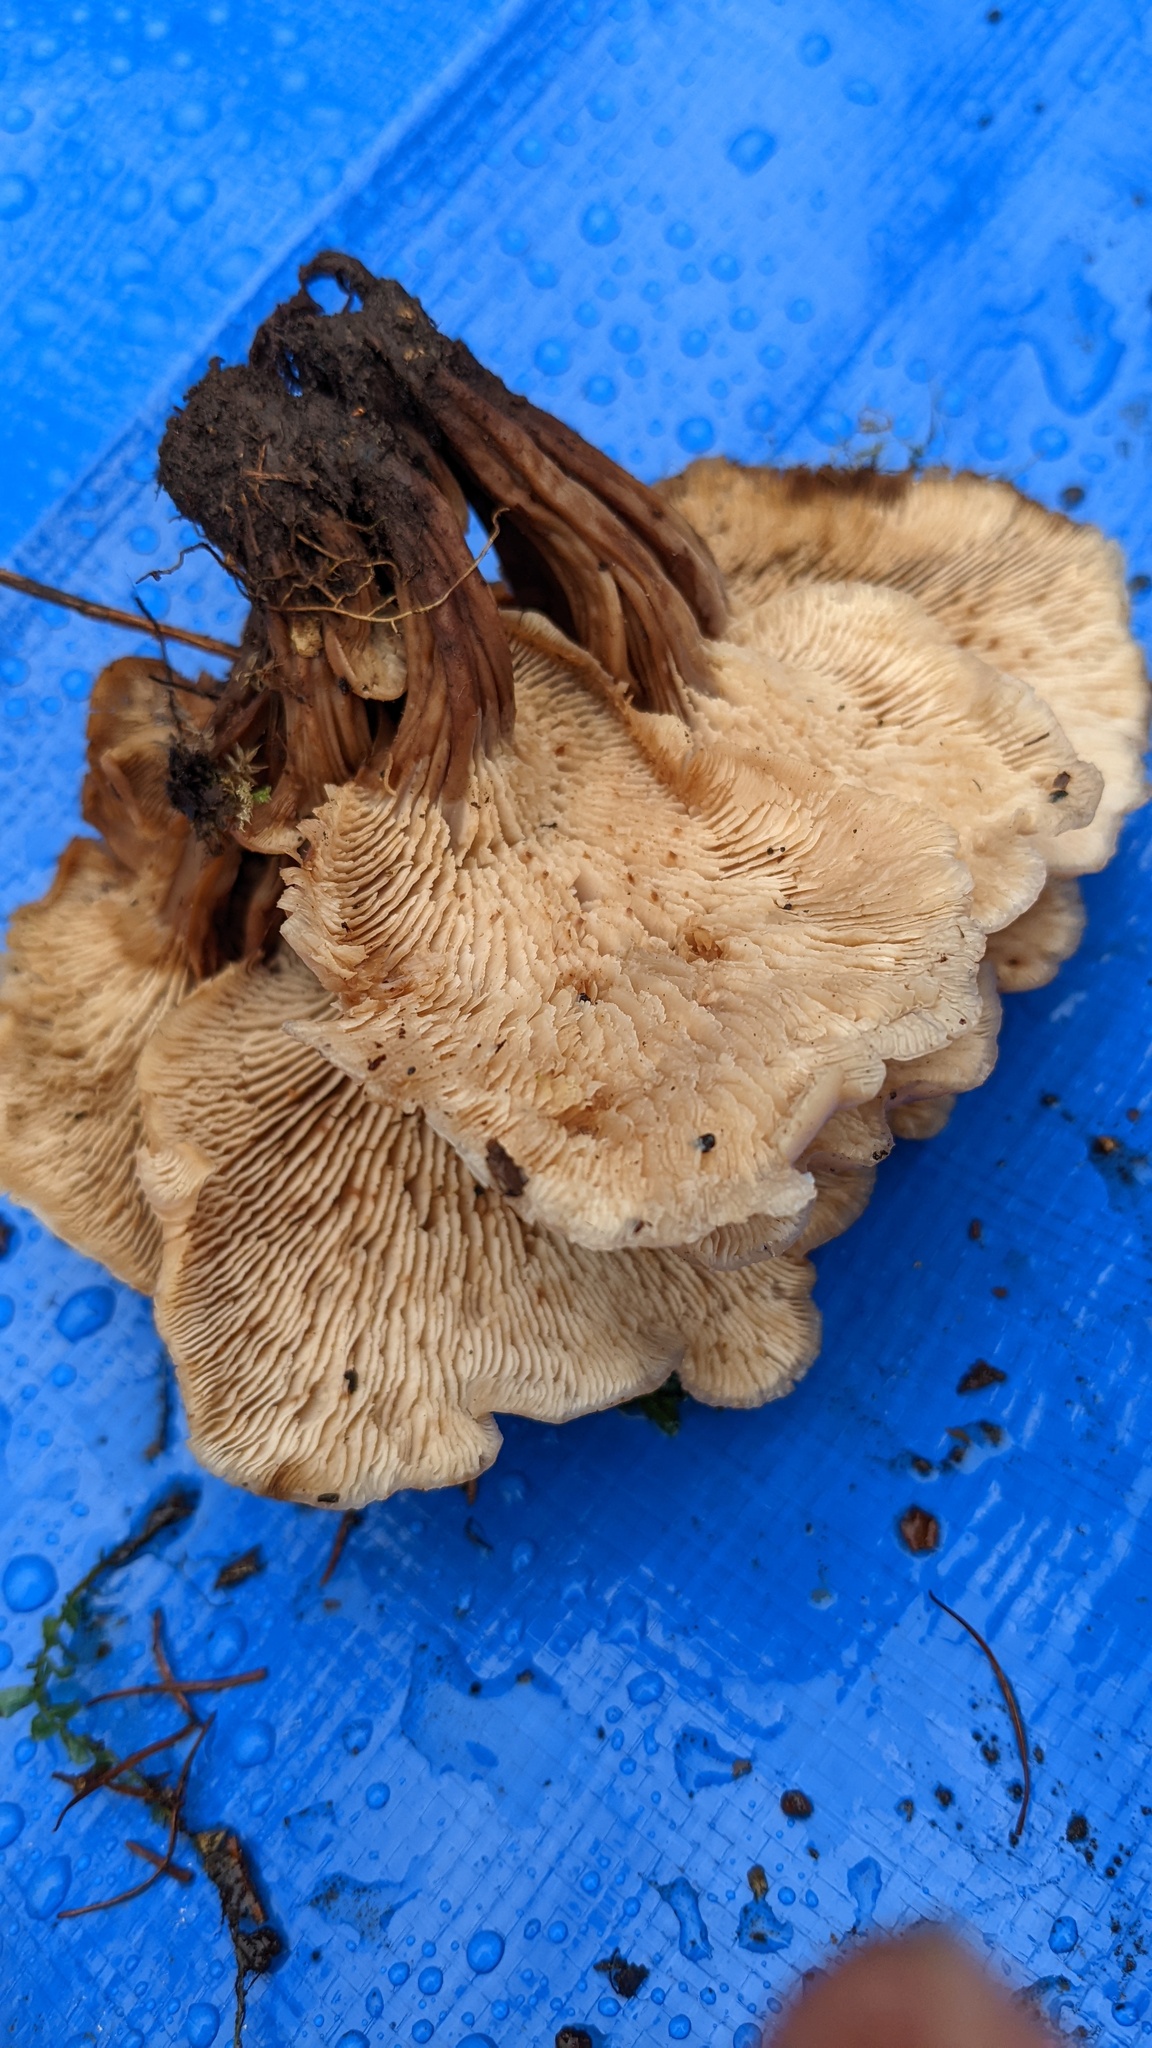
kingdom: Fungi
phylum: Basidiomycota
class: Agaricomycetes
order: Russulales
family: Auriscalpiaceae
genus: Lentinellus
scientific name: Lentinellus cochleatus
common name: Aniseed cockleshell
